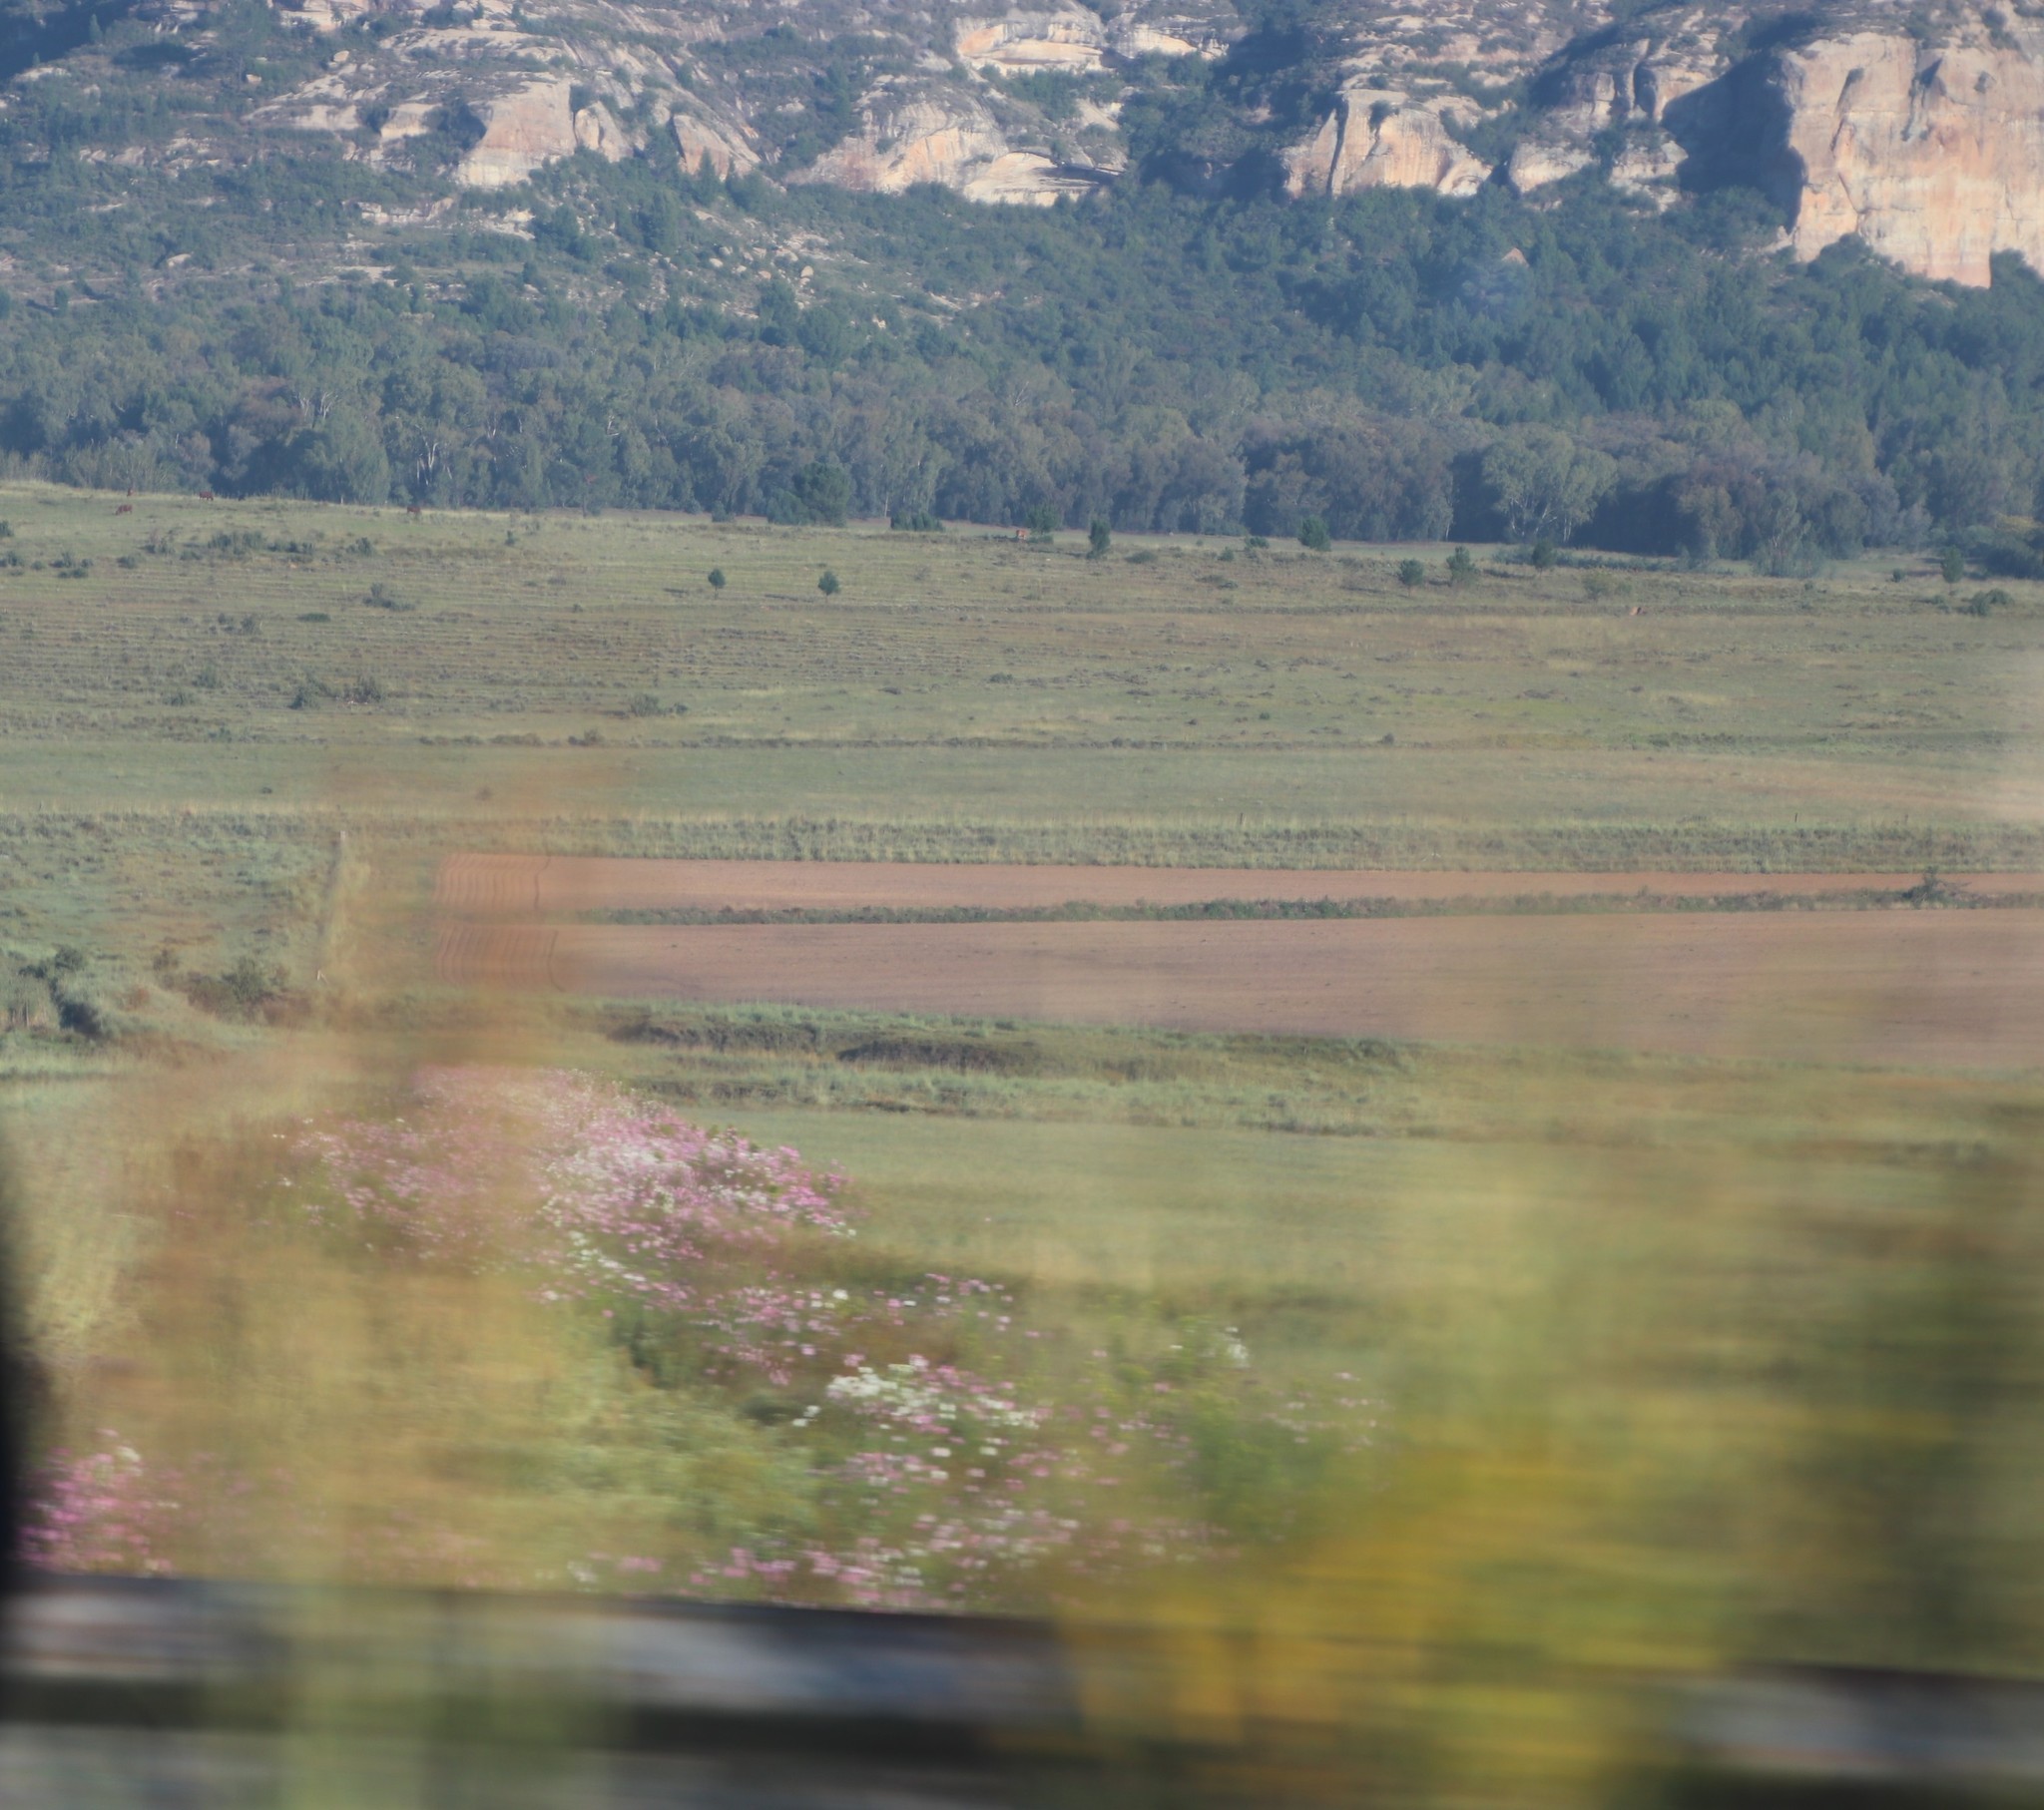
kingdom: Plantae
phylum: Tracheophyta
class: Magnoliopsida
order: Asterales
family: Asteraceae
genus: Cosmos
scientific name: Cosmos bipinnatus
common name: Garden cosmos
